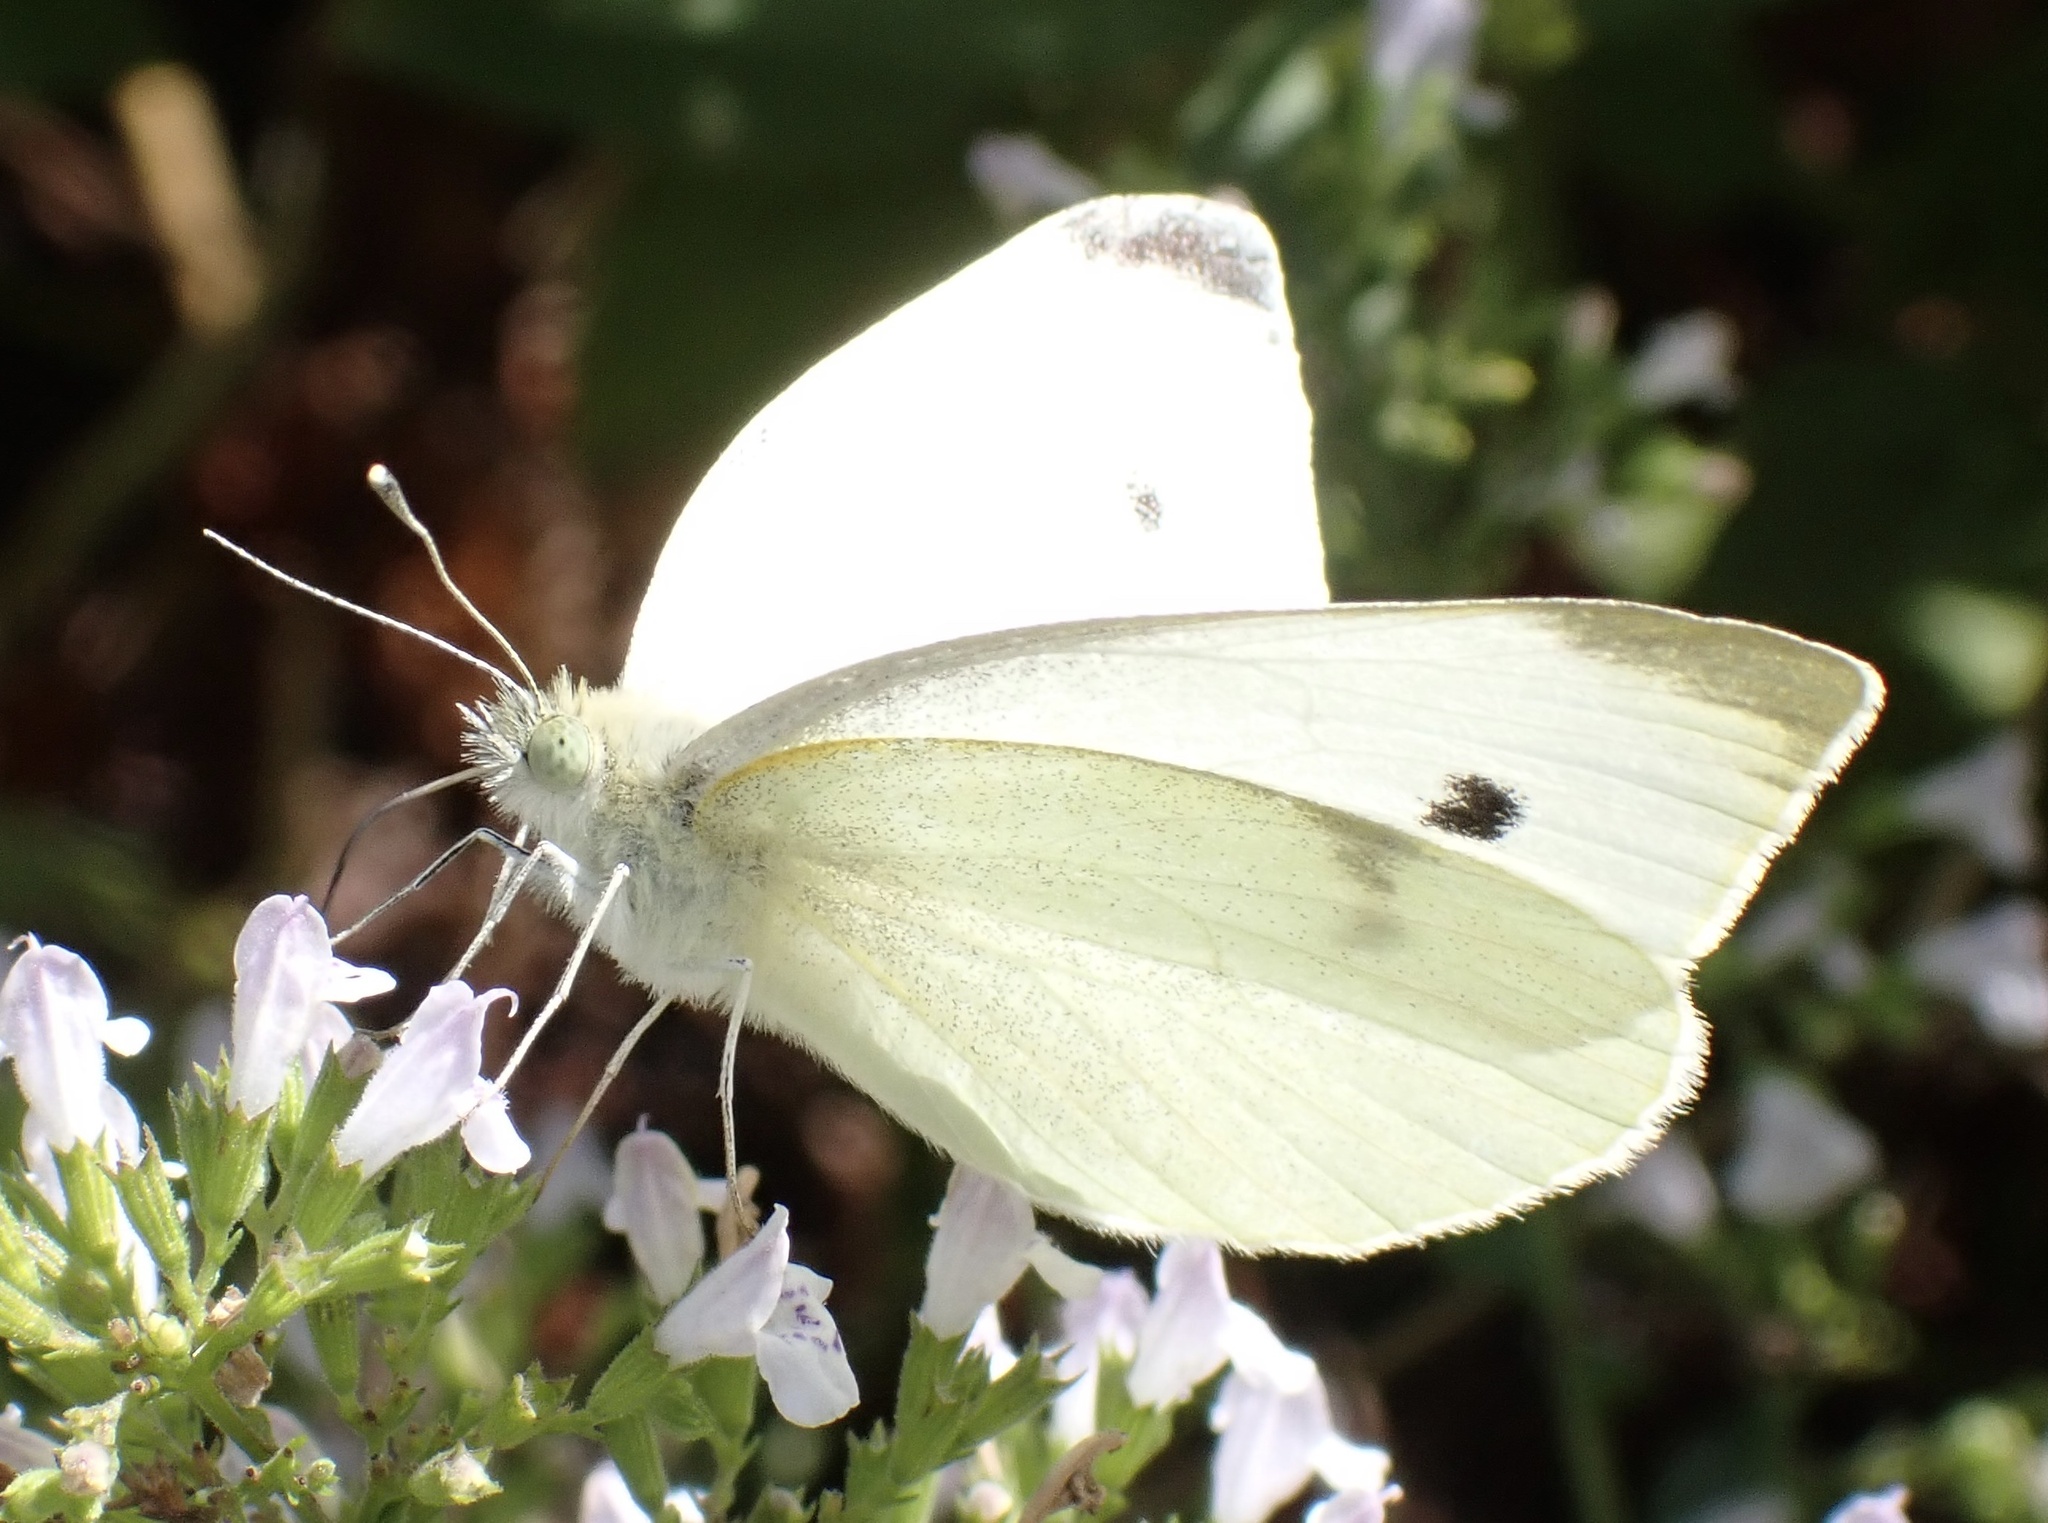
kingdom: Animalia
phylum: Arthropoda
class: Insecta
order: Lepidoptera
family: Pieridae
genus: Pieris
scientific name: Pieris rapae
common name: Small white
